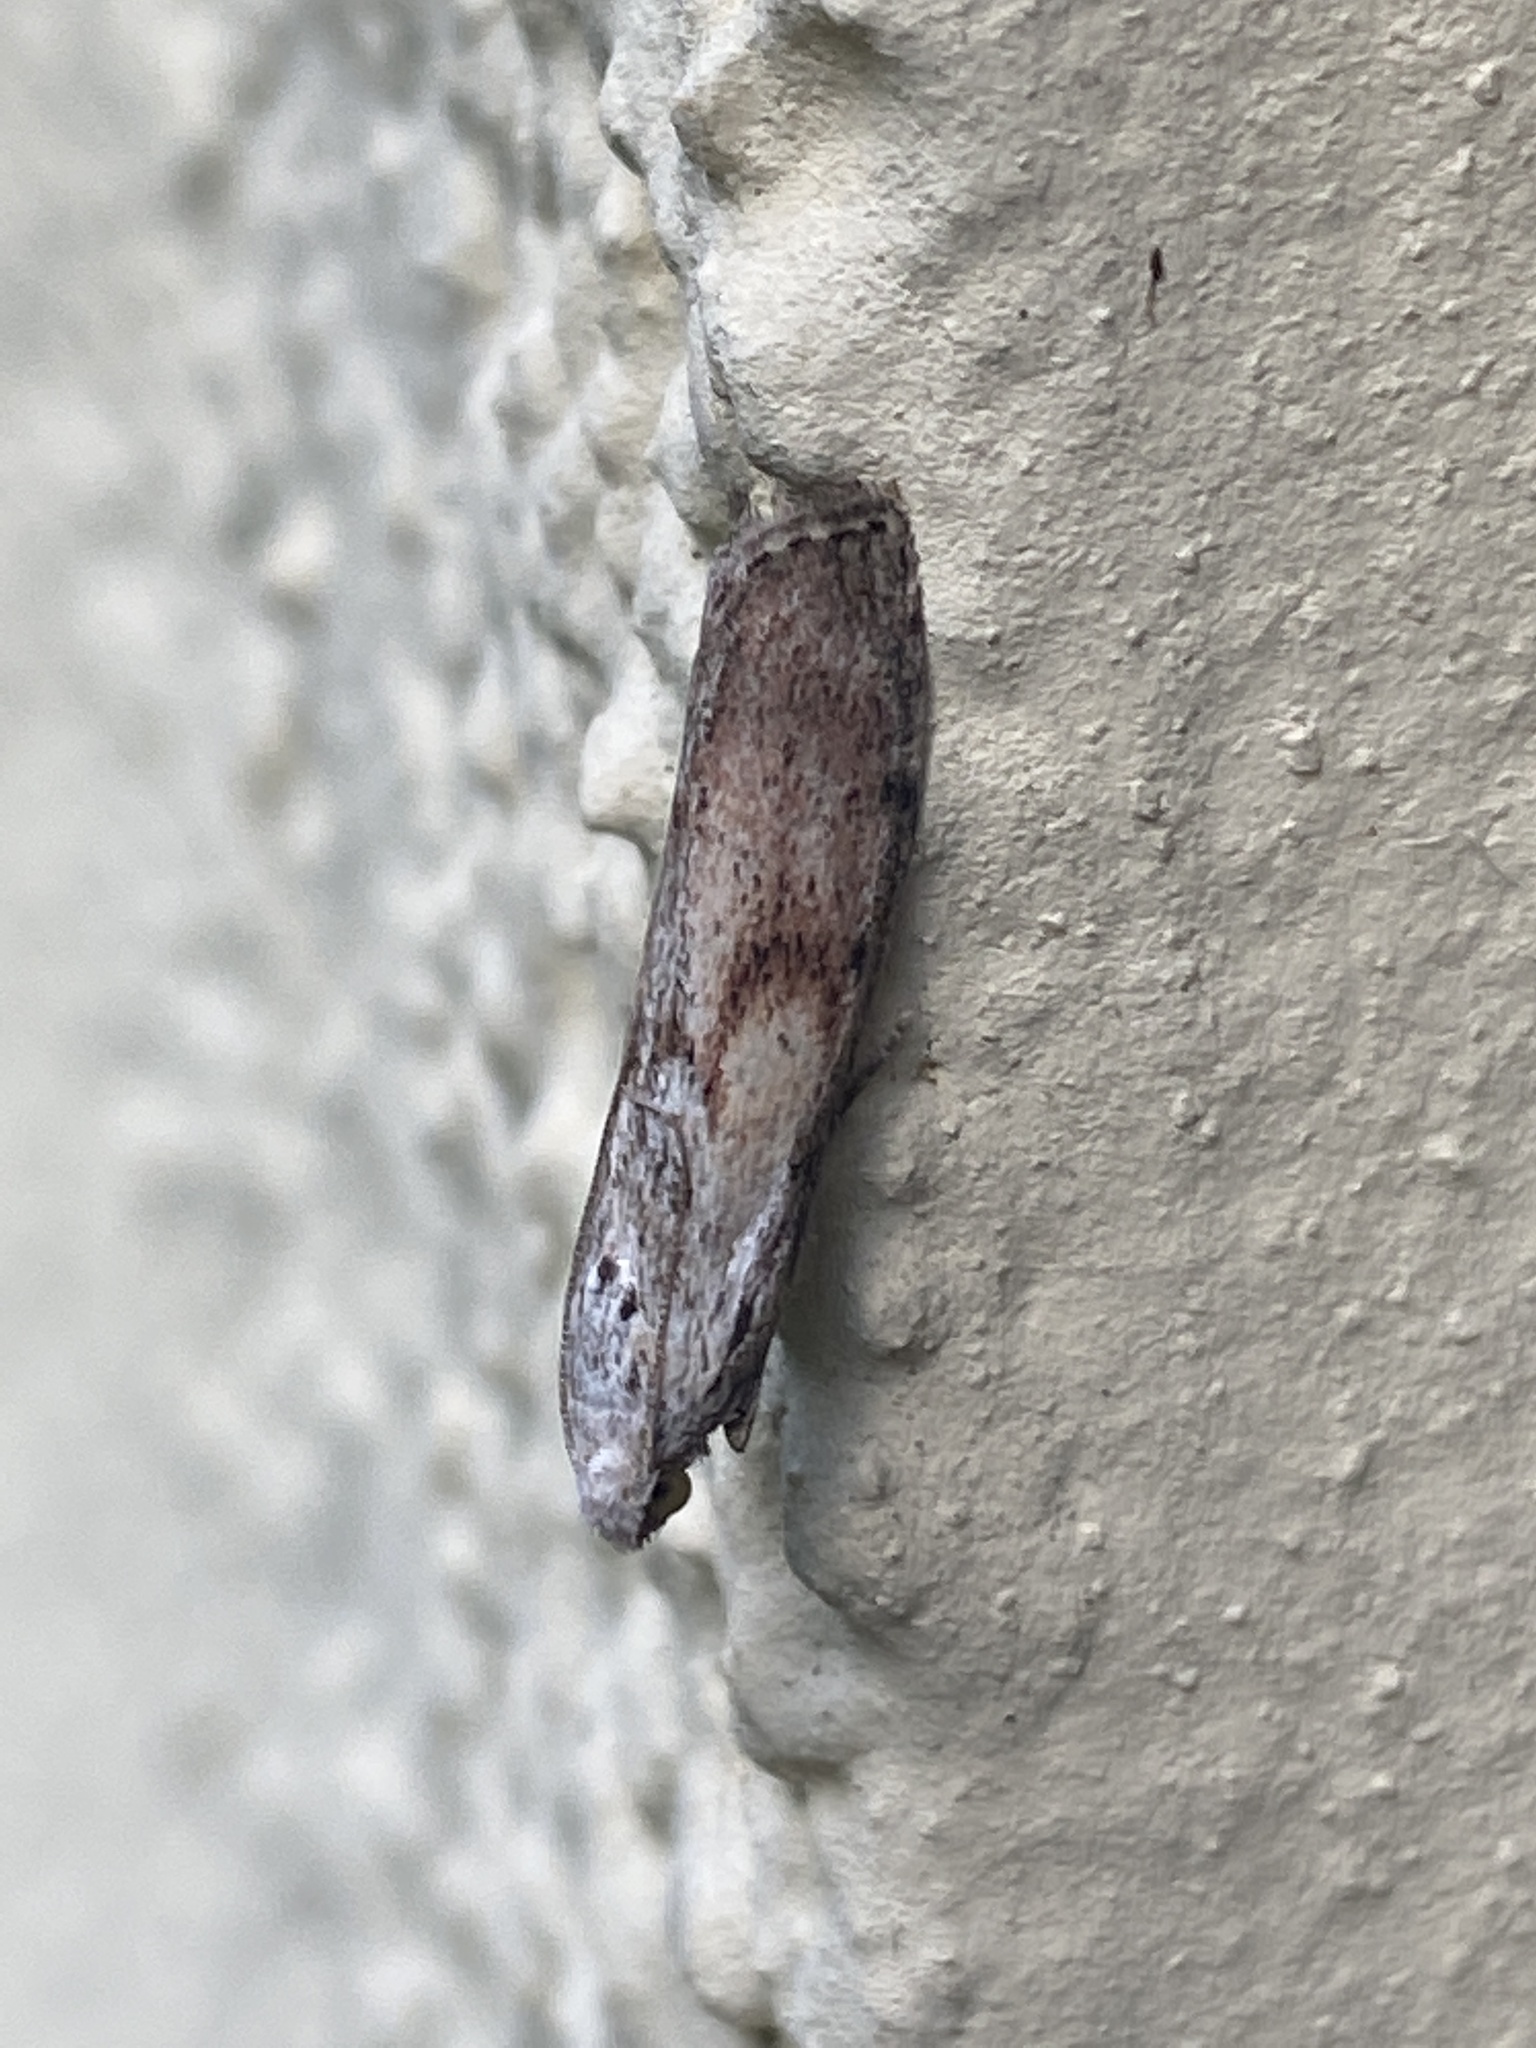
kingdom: Animalia
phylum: Arthropoda
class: Insecta
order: Lepidoptera
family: Pyralidae
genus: Aphomia
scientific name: Aphomia sociella
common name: Bee moth
